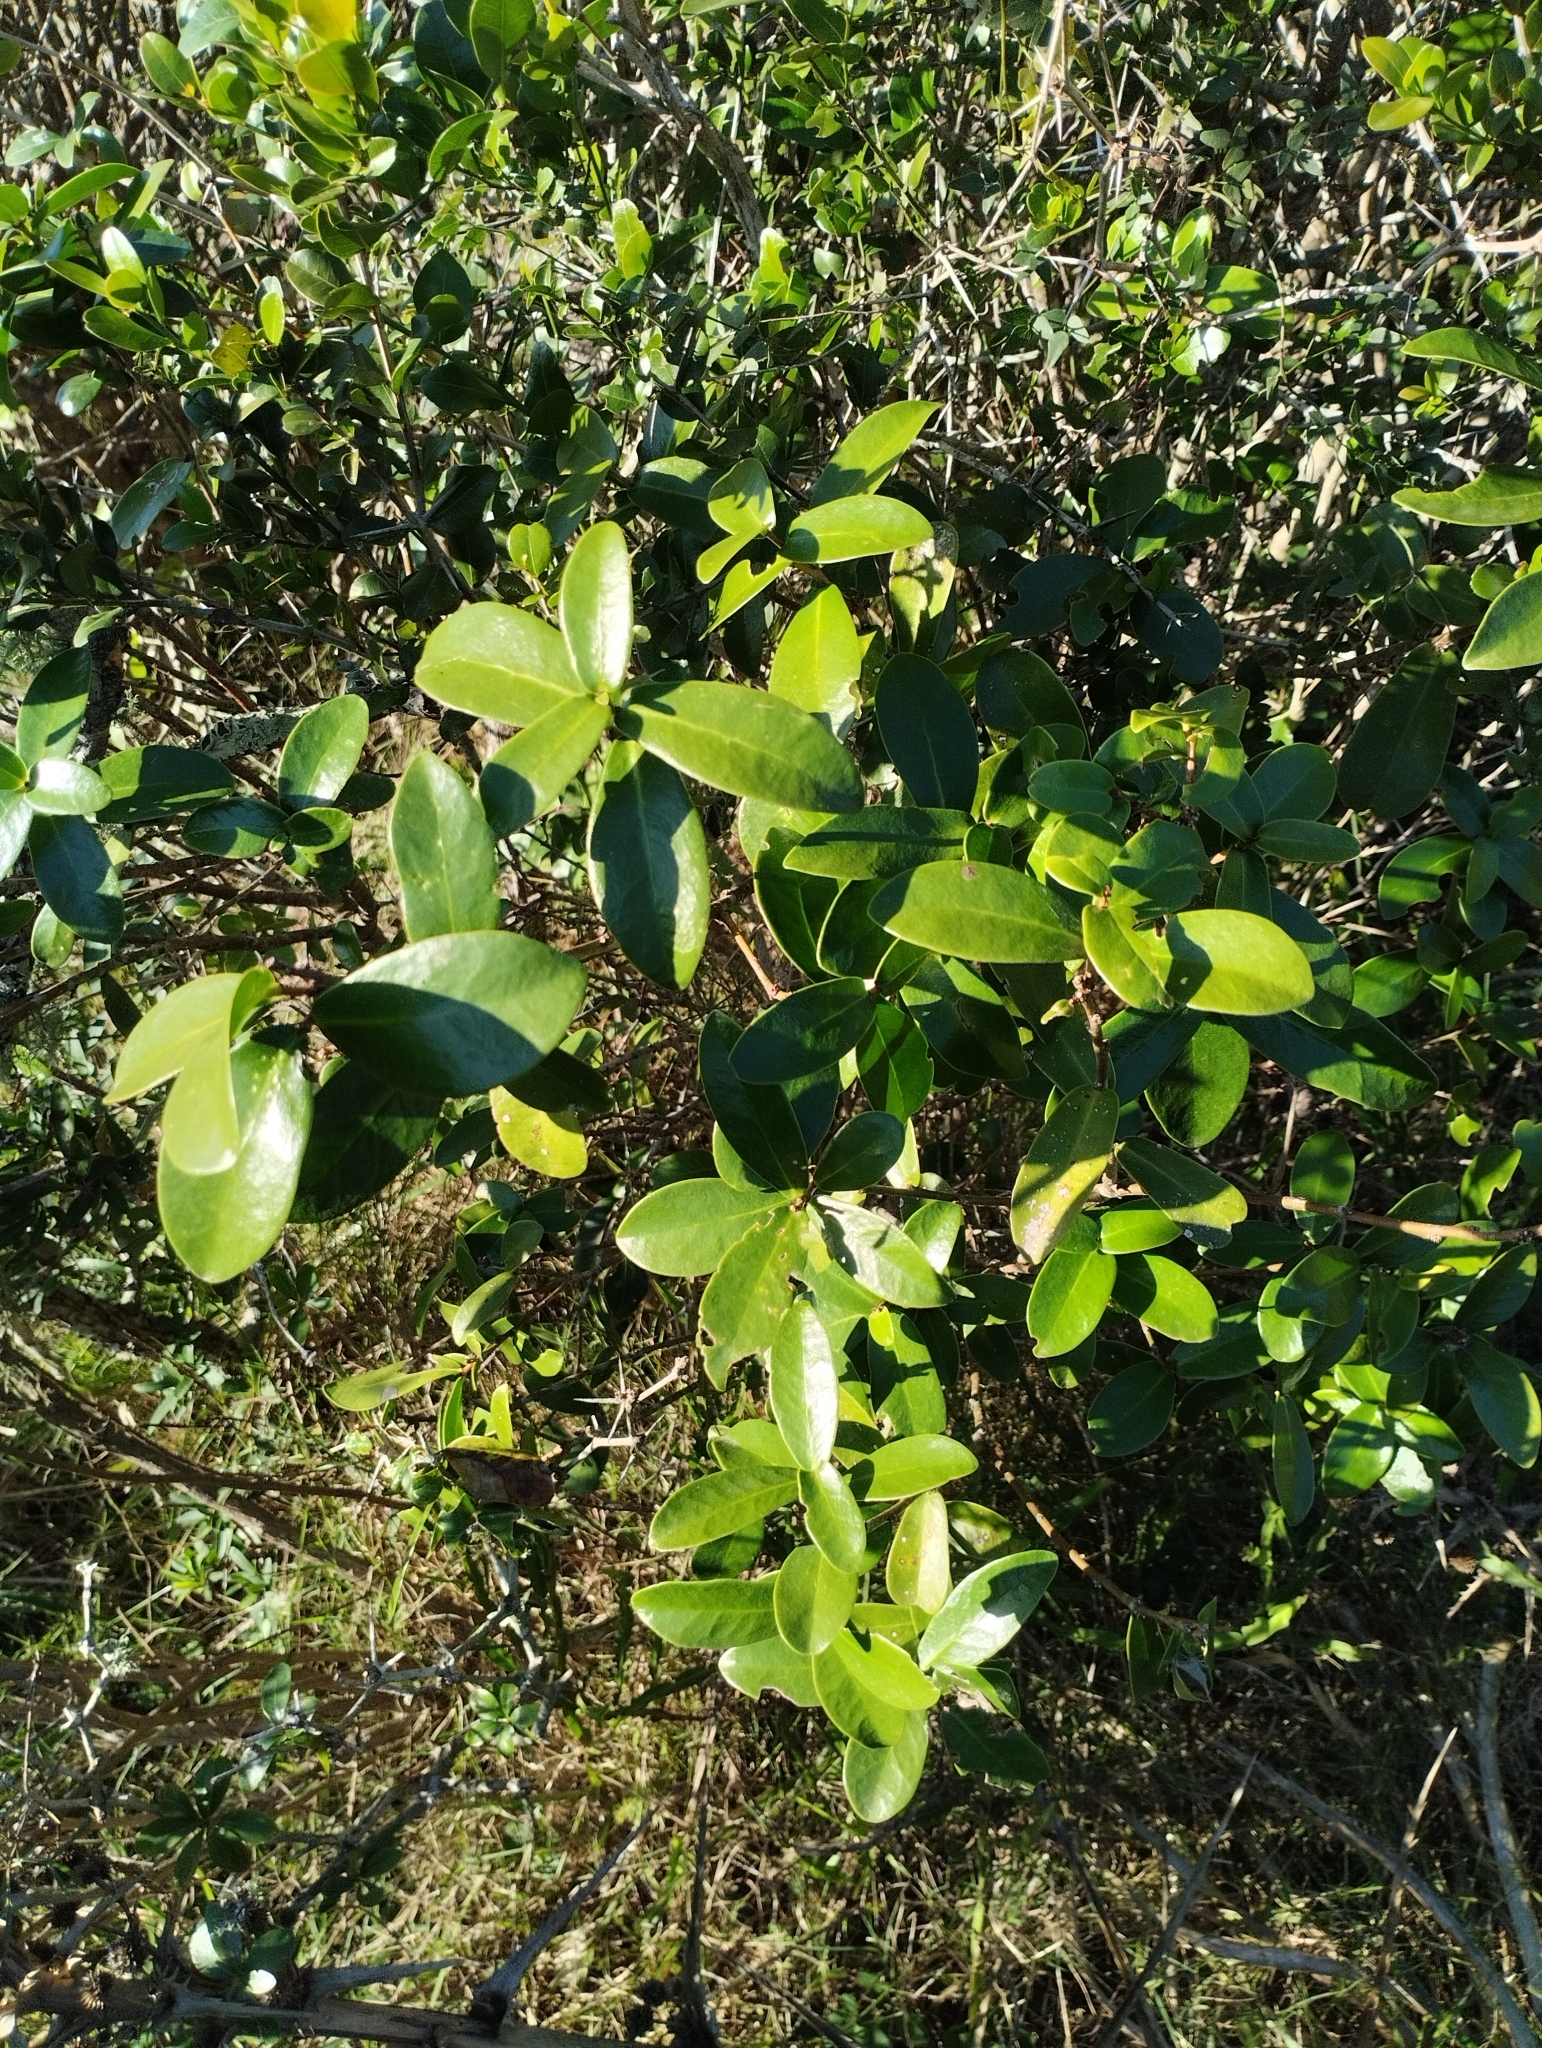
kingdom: Plantae
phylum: Tracheophyta
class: Magnoliopsida
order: Malvales
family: Thymelaeaceae
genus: Daphnopsis
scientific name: Daphnopsis racemosa
